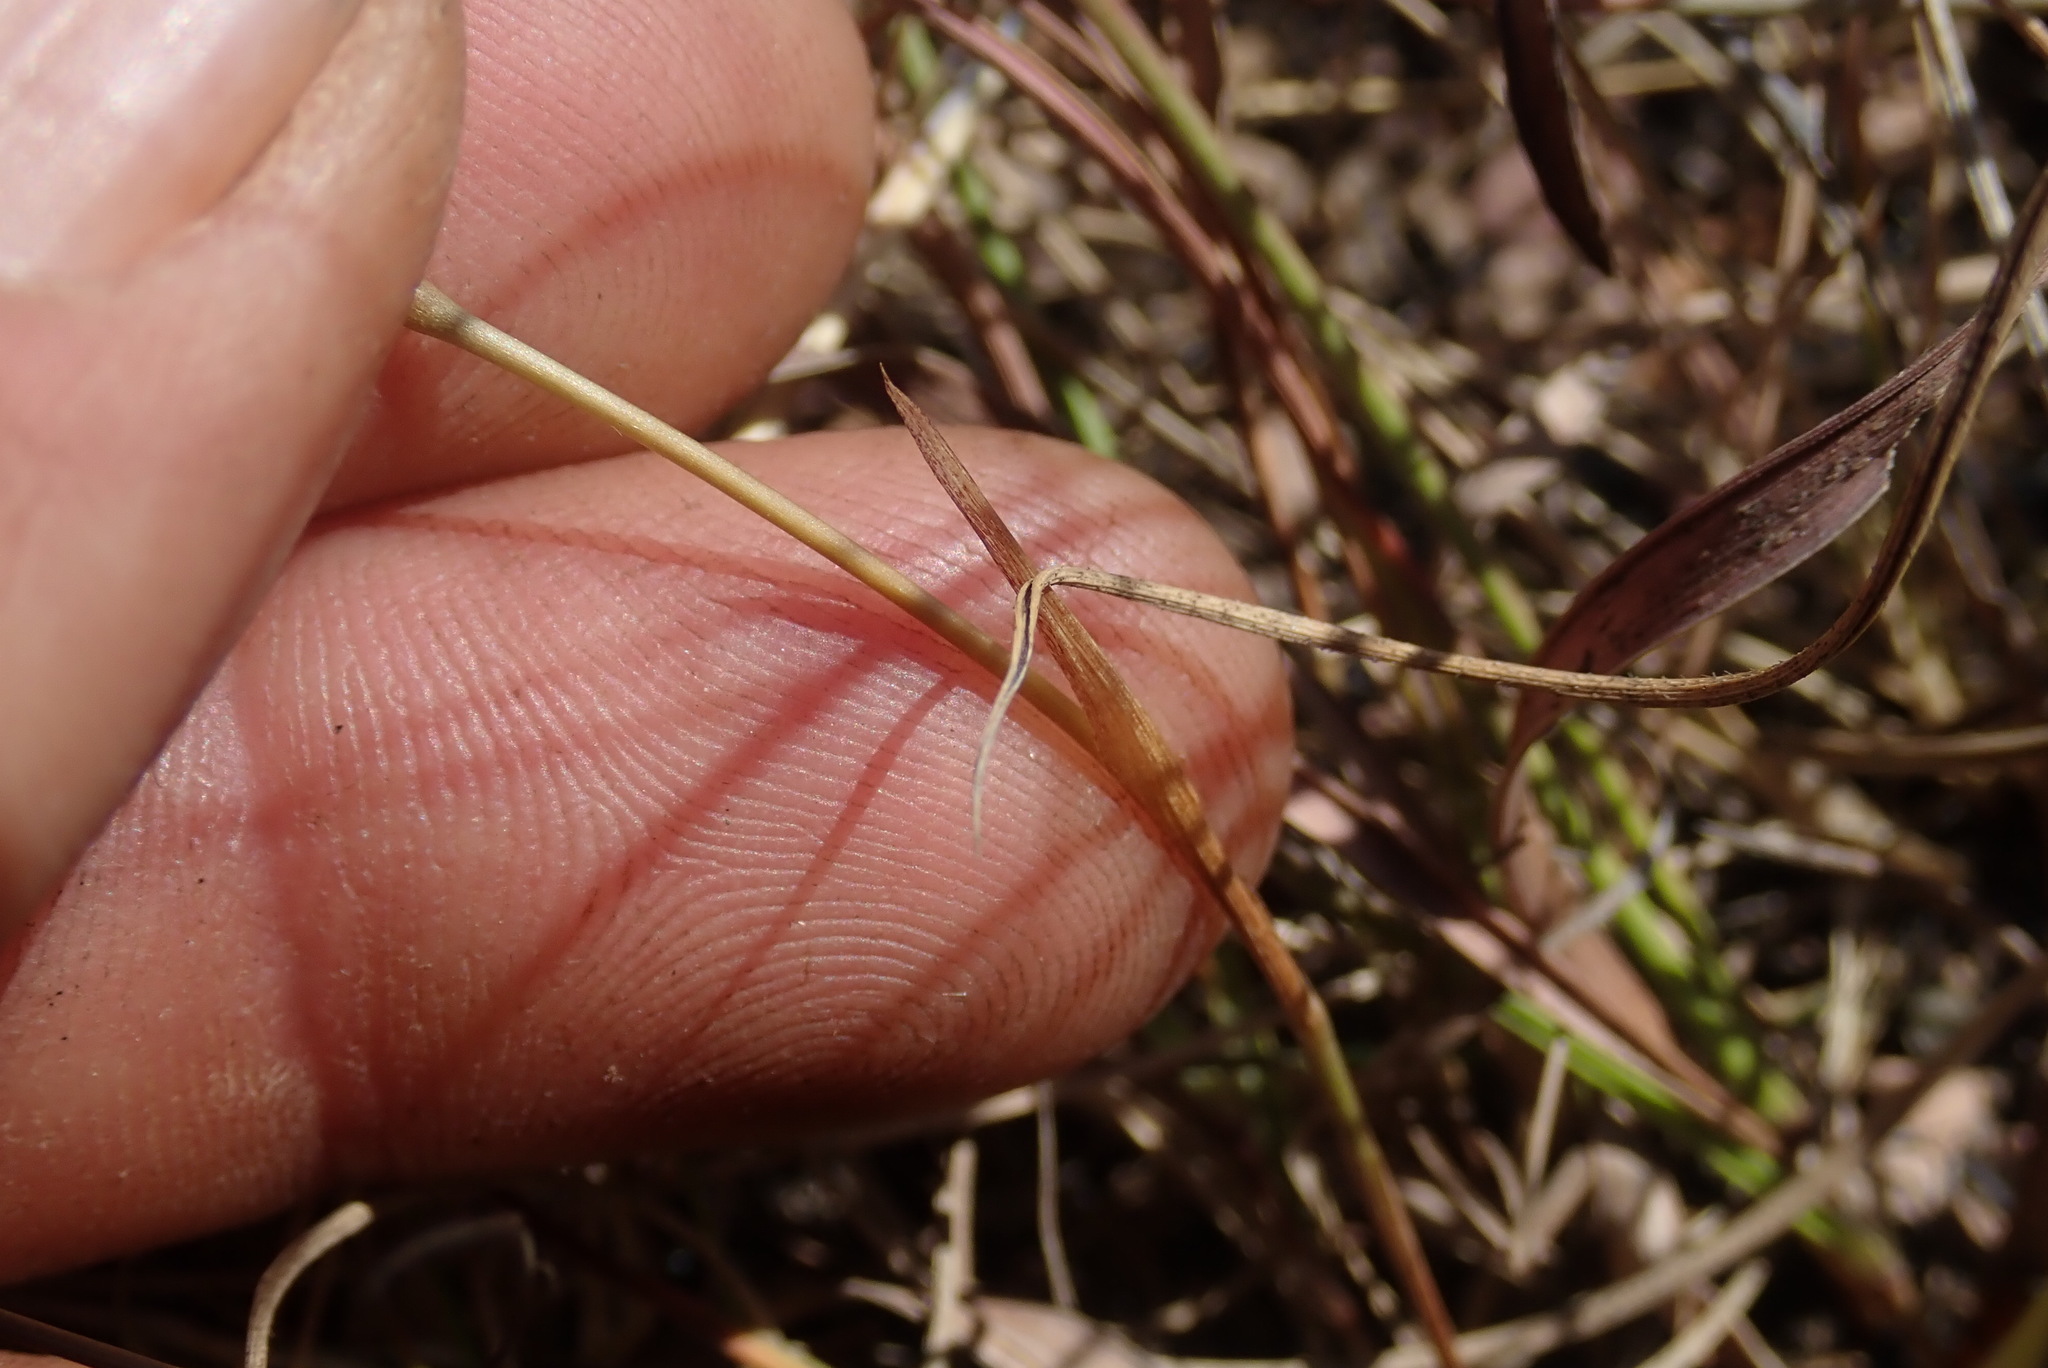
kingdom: Plantae
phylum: Tracheophyta
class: Liliopsida
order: Asparagales
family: Iridaceae
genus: Moraea
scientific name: Moraea stricta
